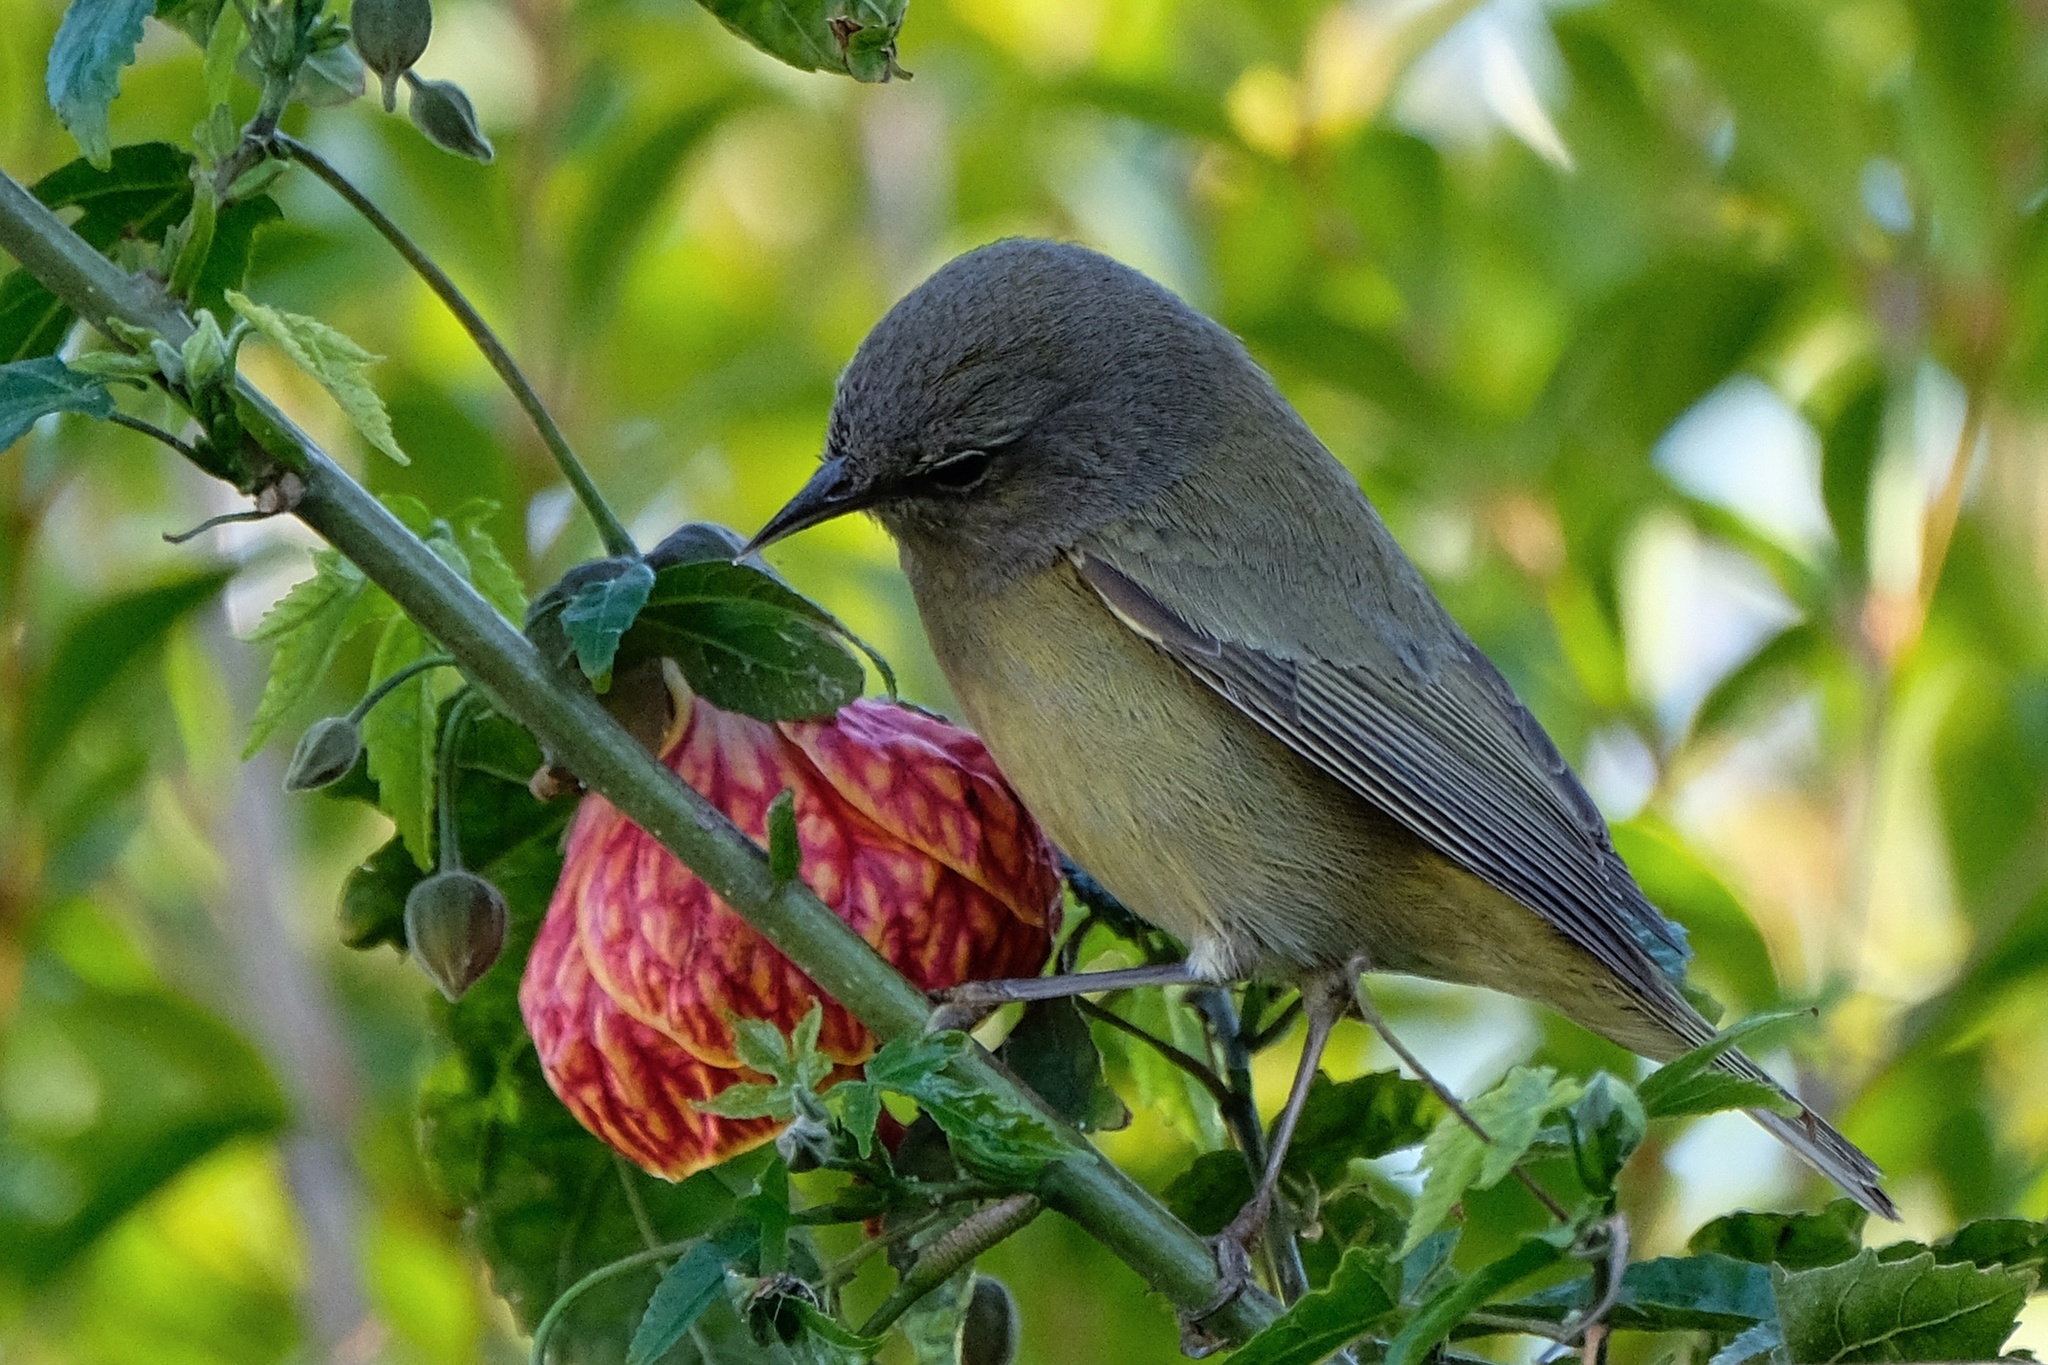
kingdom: Animalia
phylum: Chordata
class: Aves
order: Passeriformes
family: Parulidae
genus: Leiothlypis
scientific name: Leiothlypis celata
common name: Orange-crowned warbler
